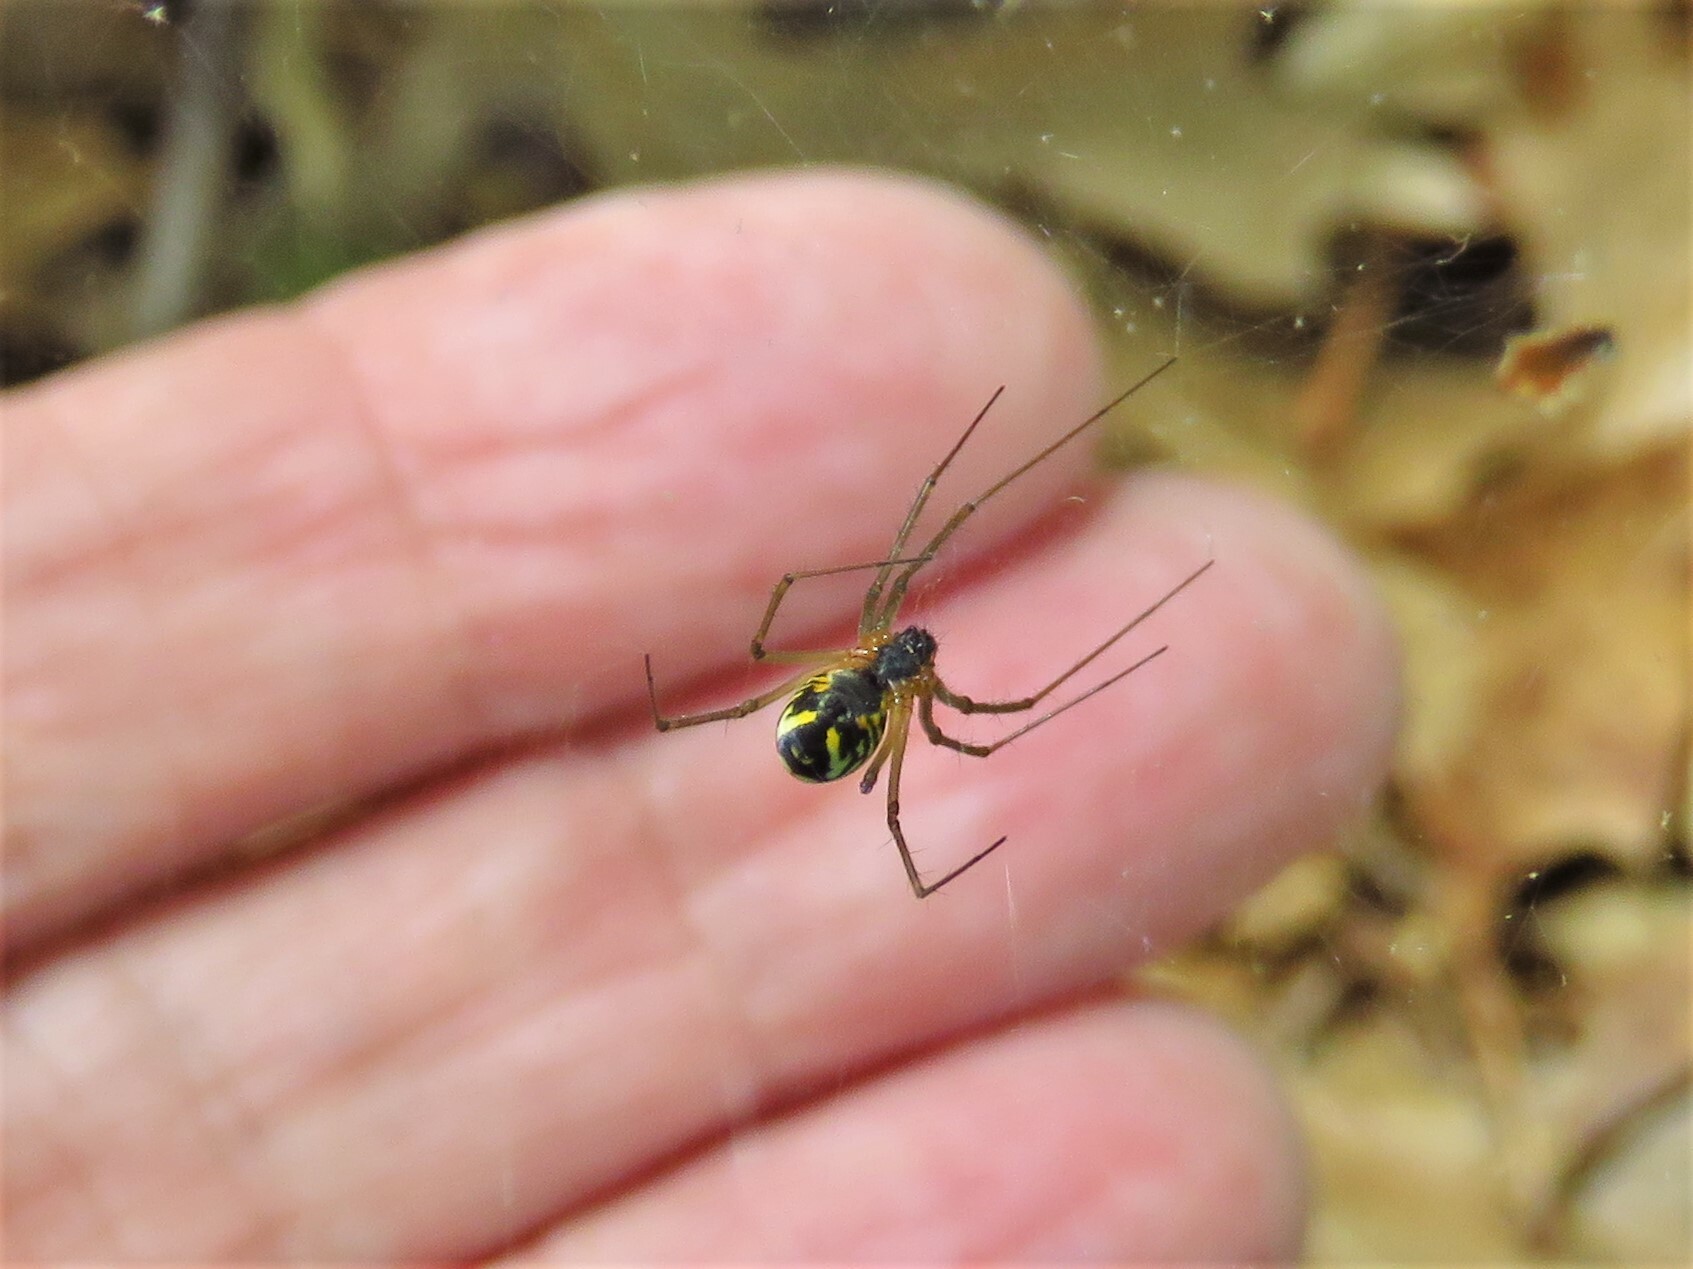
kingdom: Animalia
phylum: Arthropoda
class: Arachnida
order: Araneae
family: Linyphiidae
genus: Neriene
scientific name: Neriene radiata
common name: Filmy dome spider
